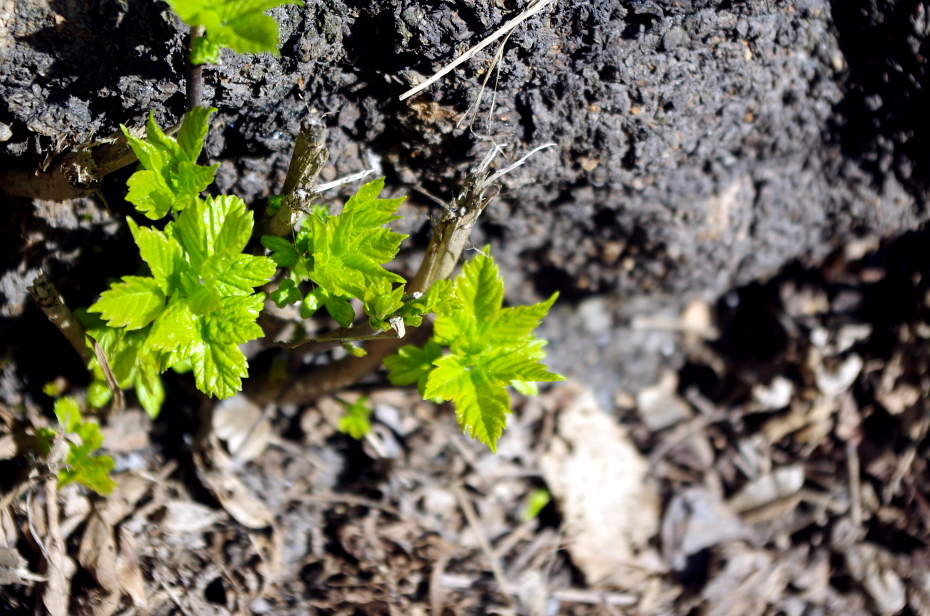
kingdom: Plantae
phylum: Tracheophyta
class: Magnoliopsida
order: Sapindales
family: Sapindaceae
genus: Acer
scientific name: Acer negundo
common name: Ashleaf maple
